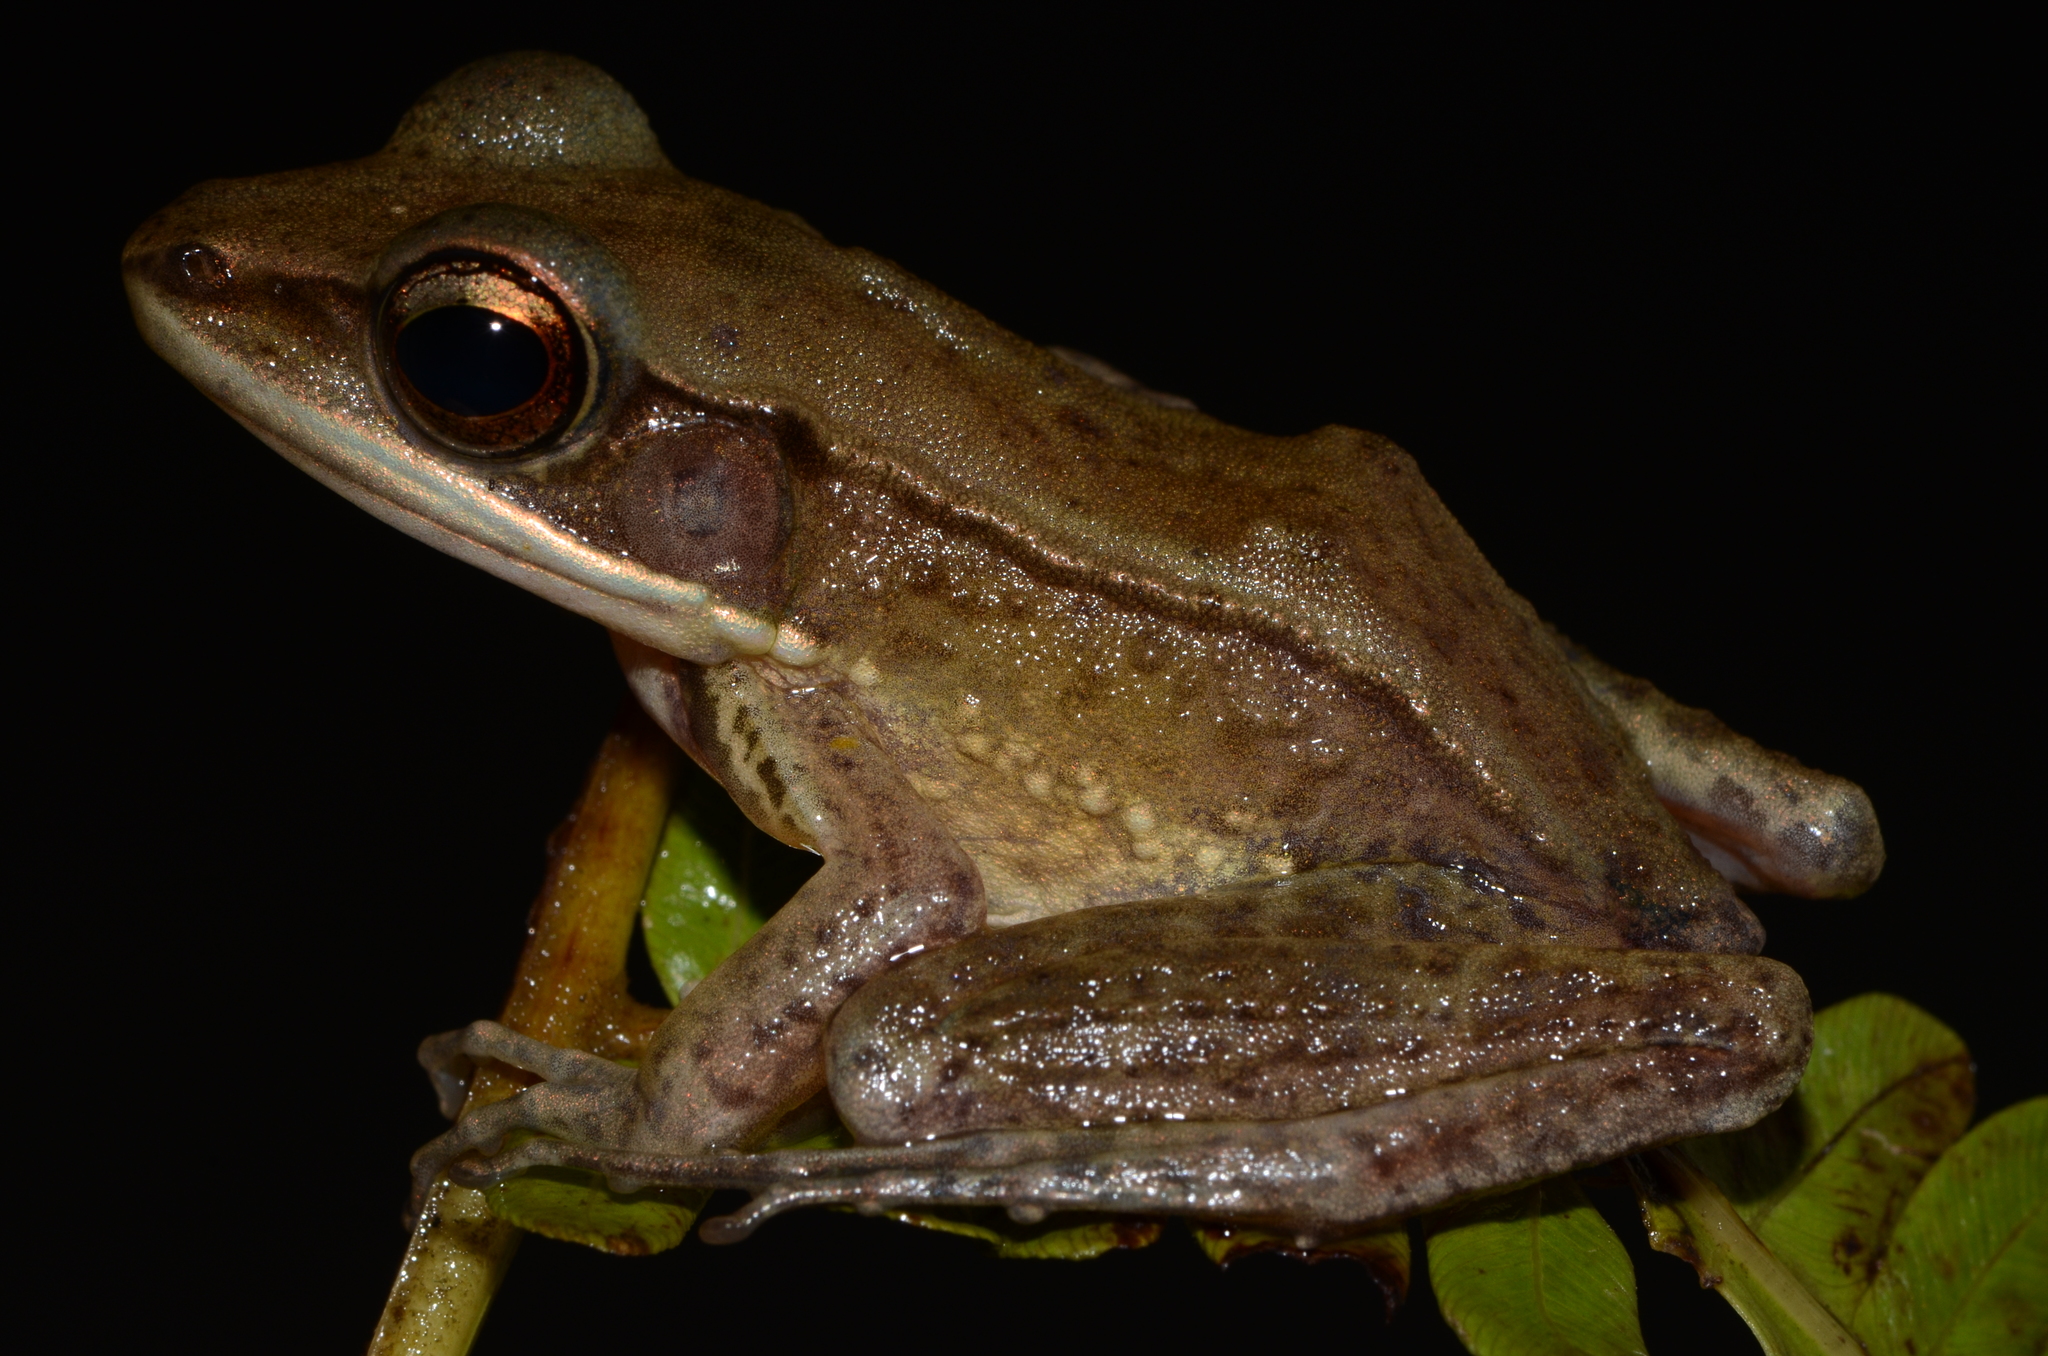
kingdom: Animalia
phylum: Chordata
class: Amphibia
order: Anura
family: Ranidae
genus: Amnirana
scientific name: Amnirana albolabris
